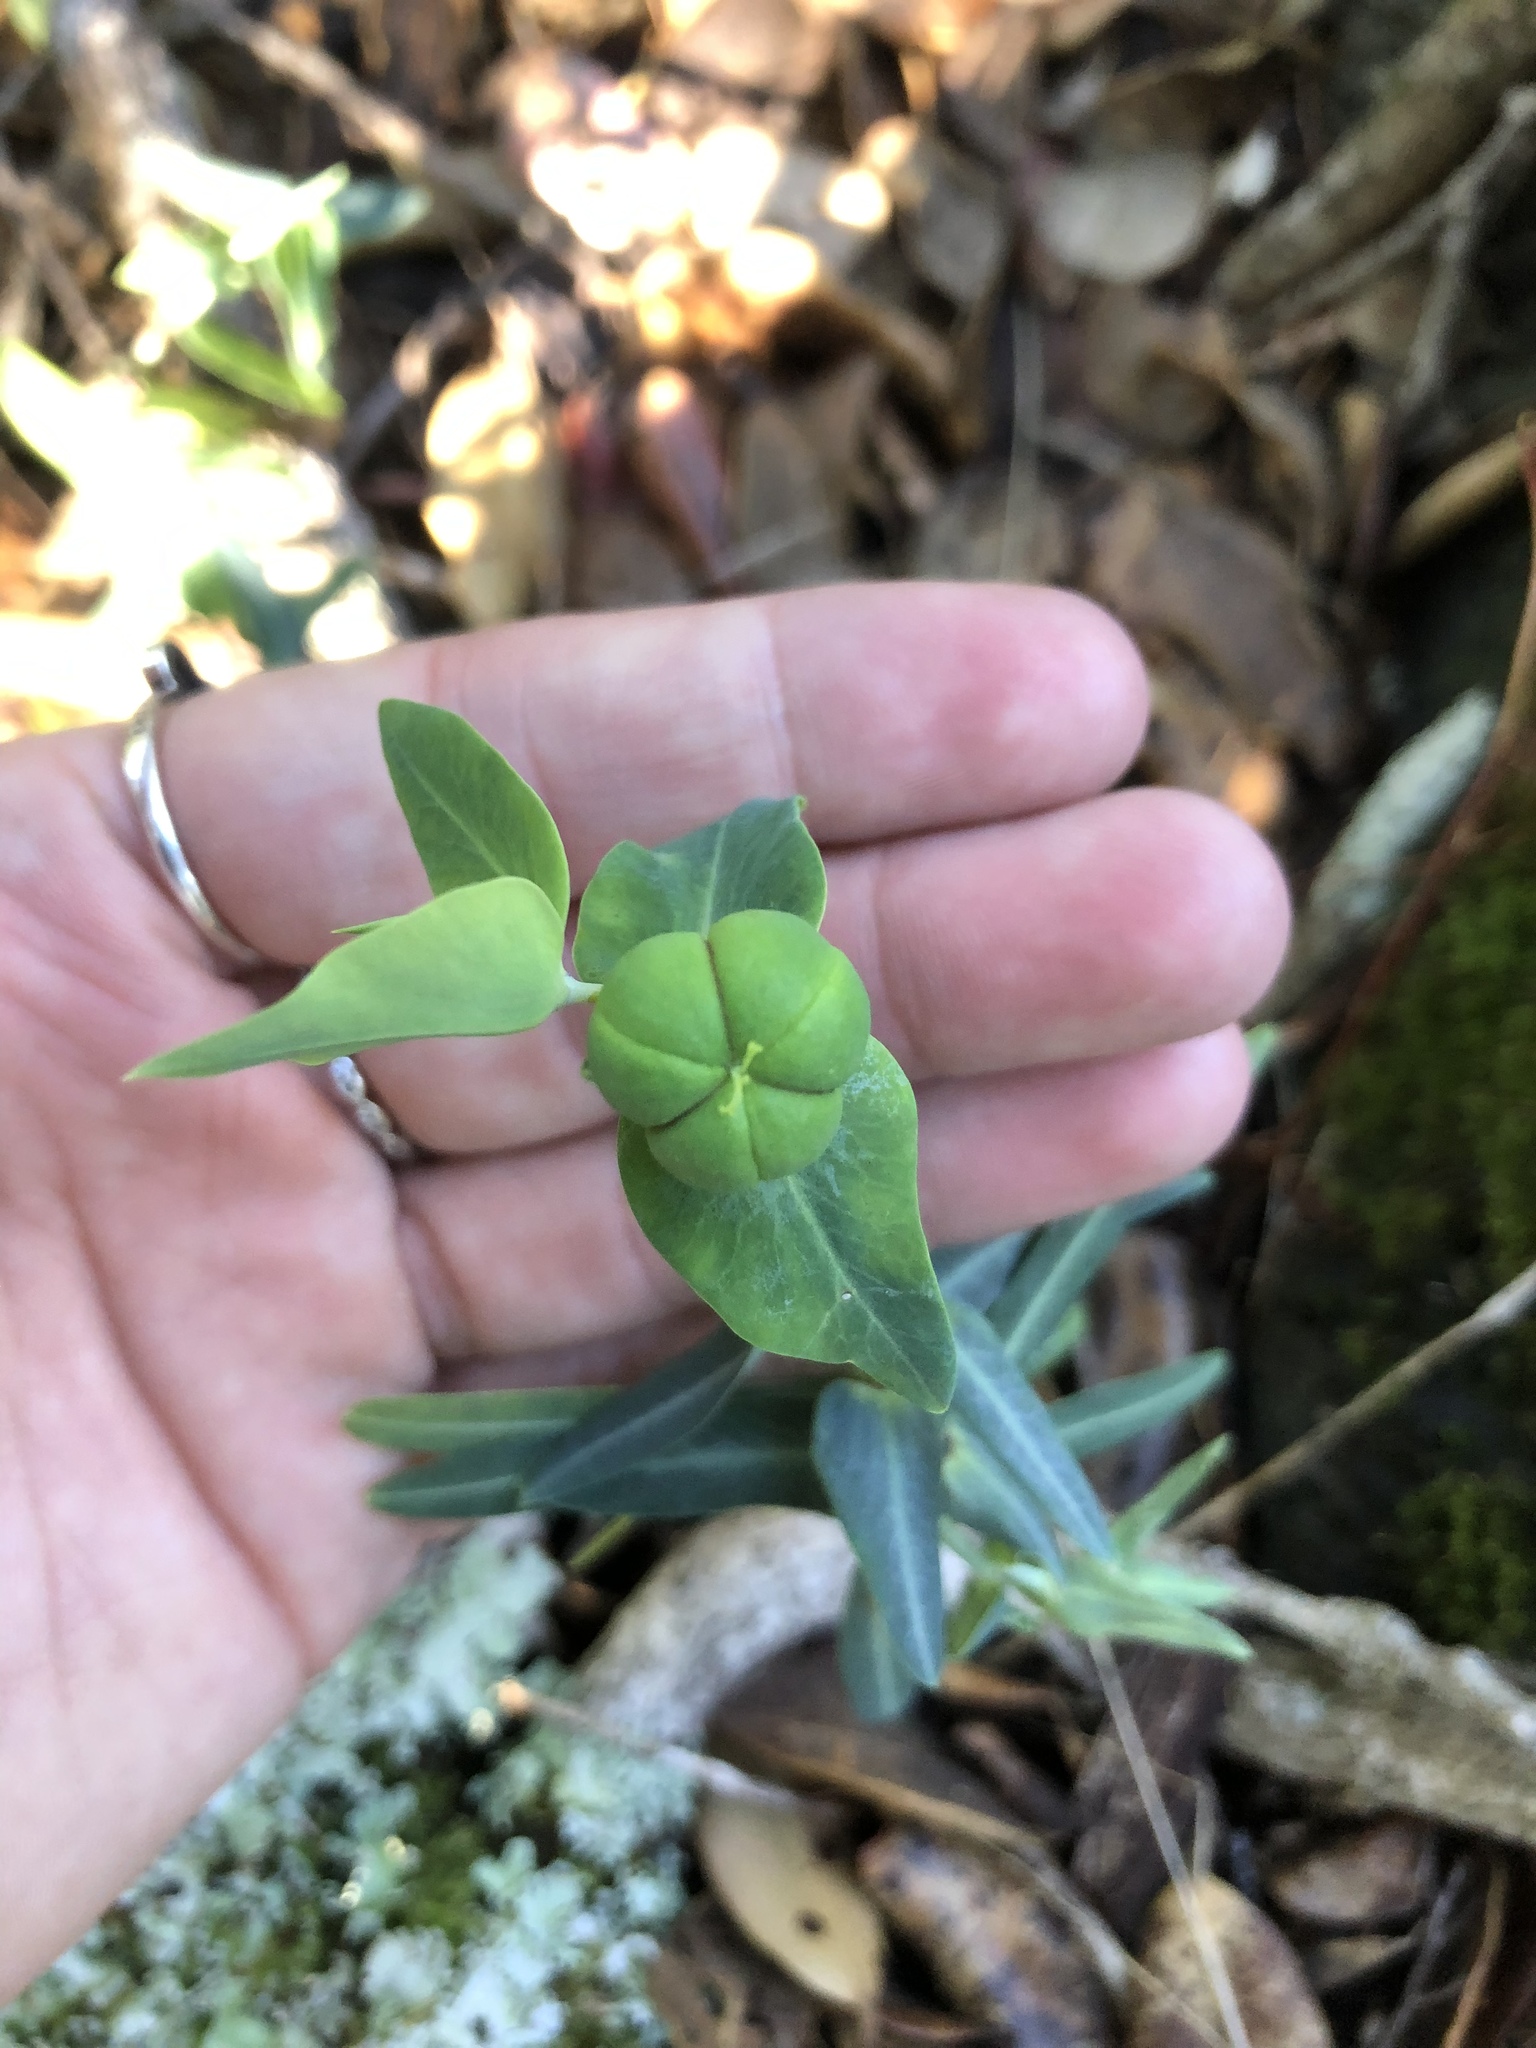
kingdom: Plantae
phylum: Tracheophyta
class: Magnoliopsida
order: Malpighiales
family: Euphorbiaceae
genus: Euphorbia
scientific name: Euphorbia lathyris
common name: Caper spurge
